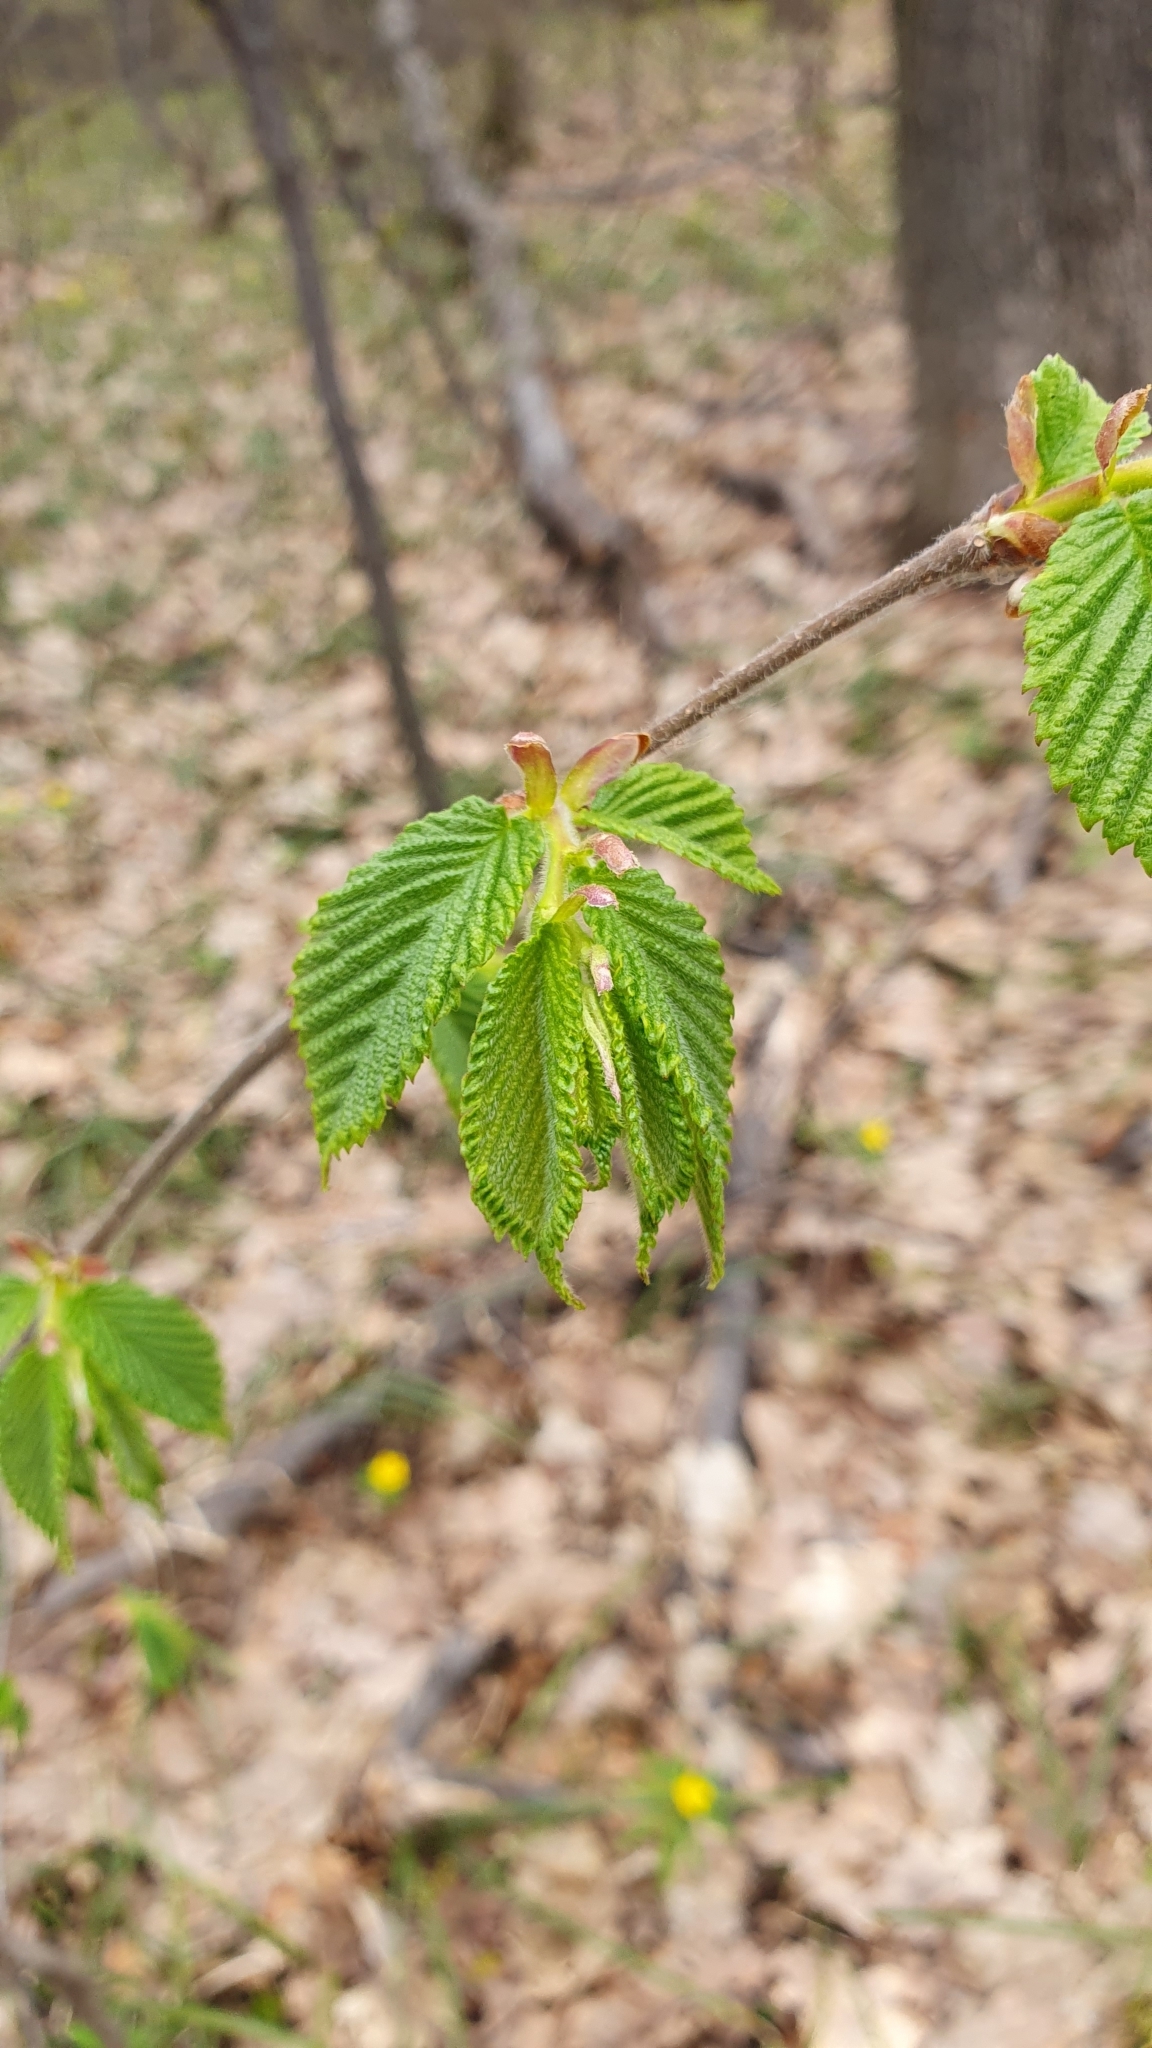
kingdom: Plantae
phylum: Tracheophyta
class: Magnoliopsida
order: Fagales
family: Betulaceae
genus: Corylus
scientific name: Corylus avellana
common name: European hazel
